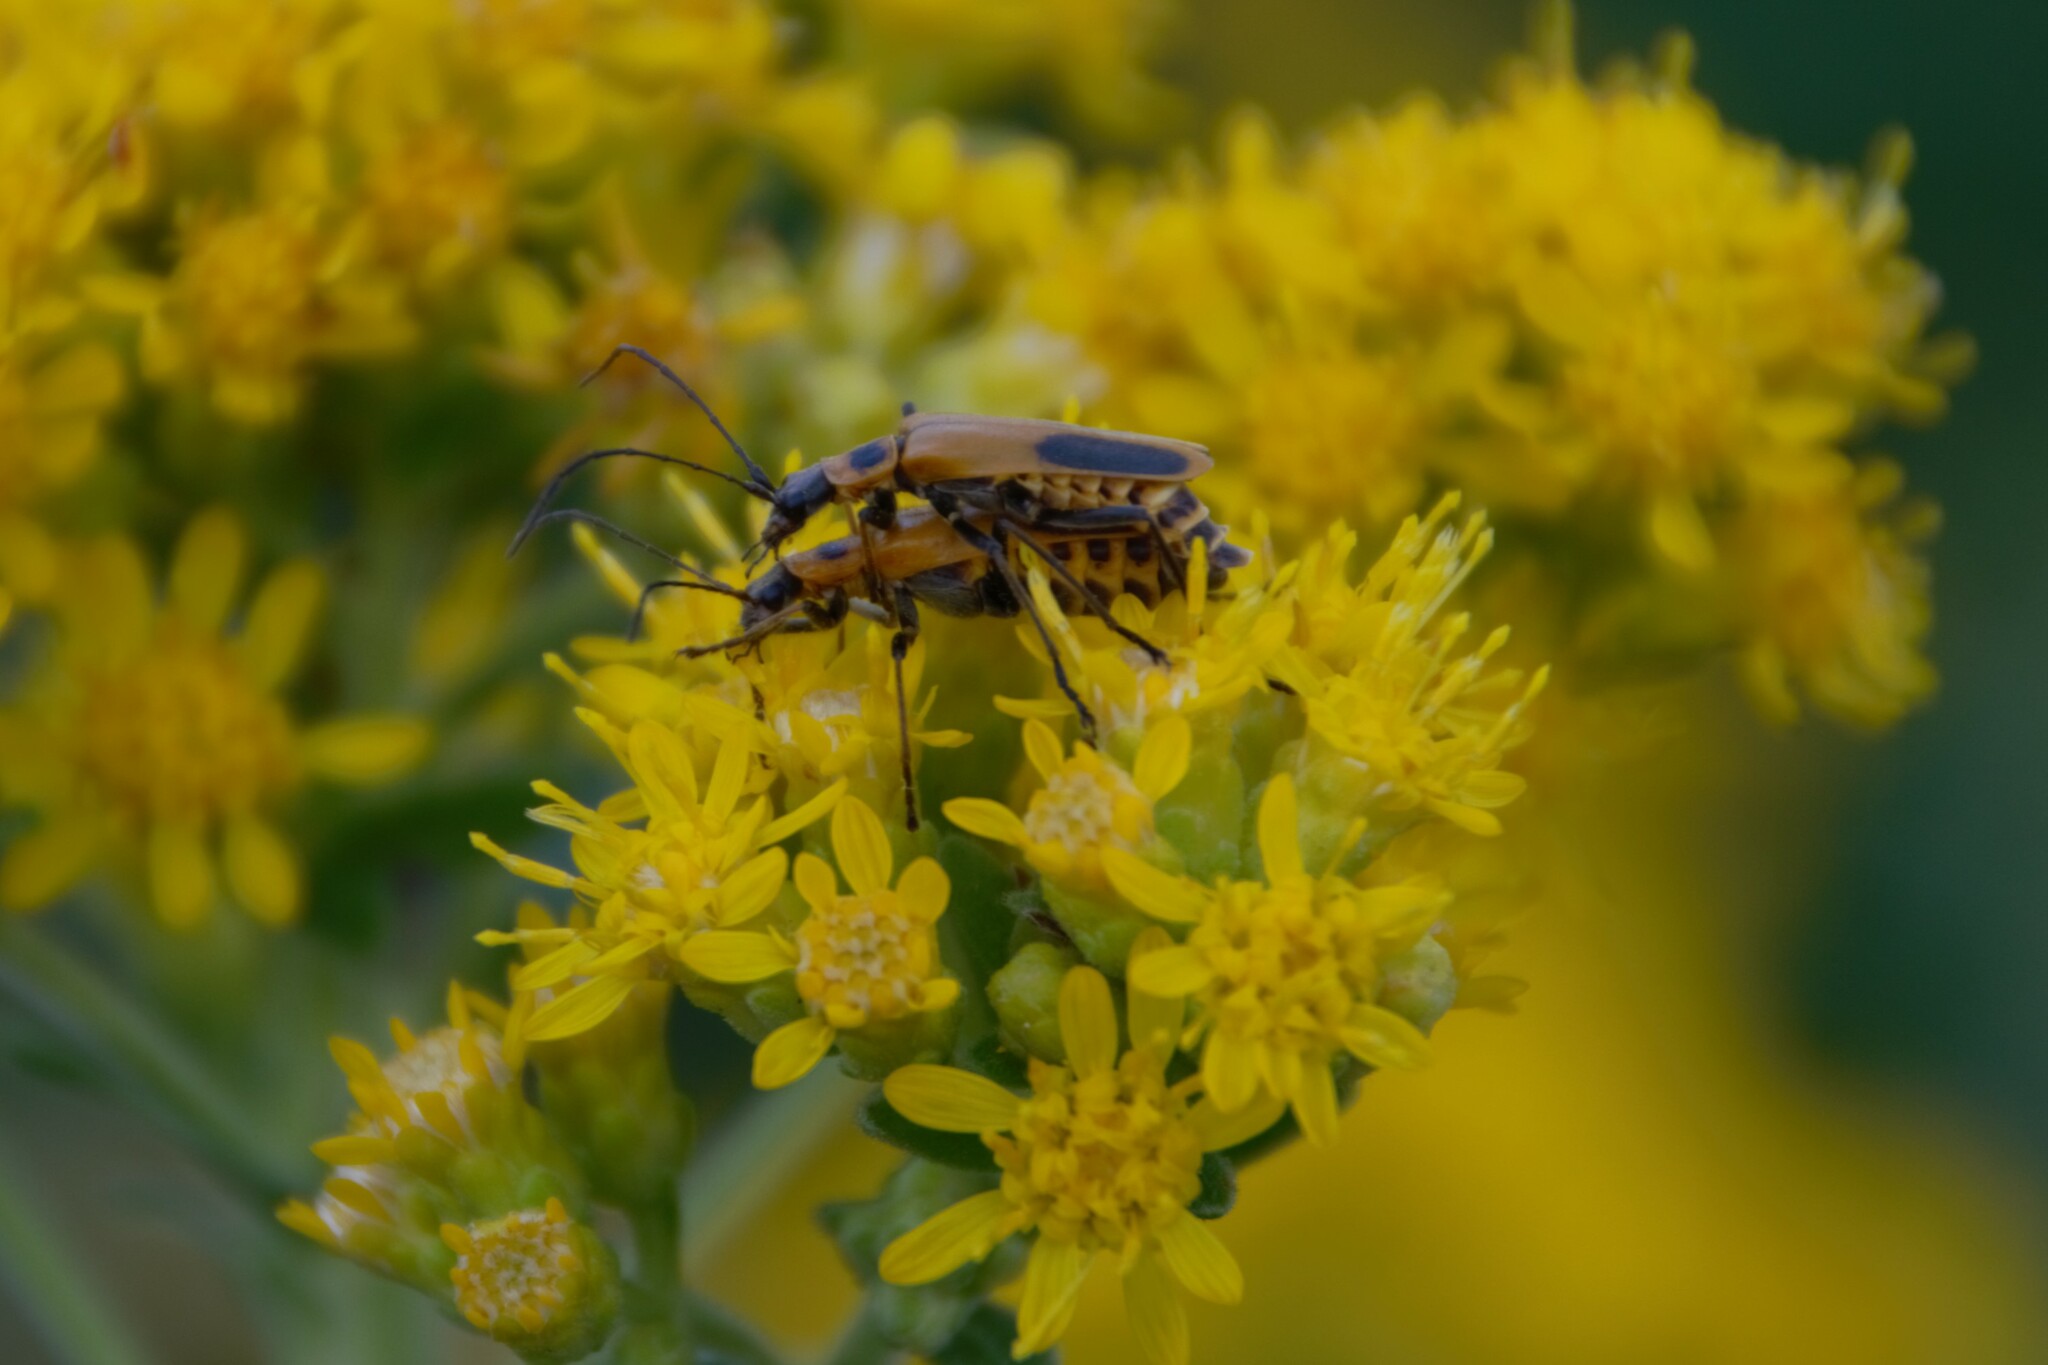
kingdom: Animalia
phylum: Arthropoda
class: Insecta
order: Coleoptera
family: Cantharidae
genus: Chauliognathus
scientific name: Chauliognathus pensylvanicus
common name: Goldenrod soldier beetle
